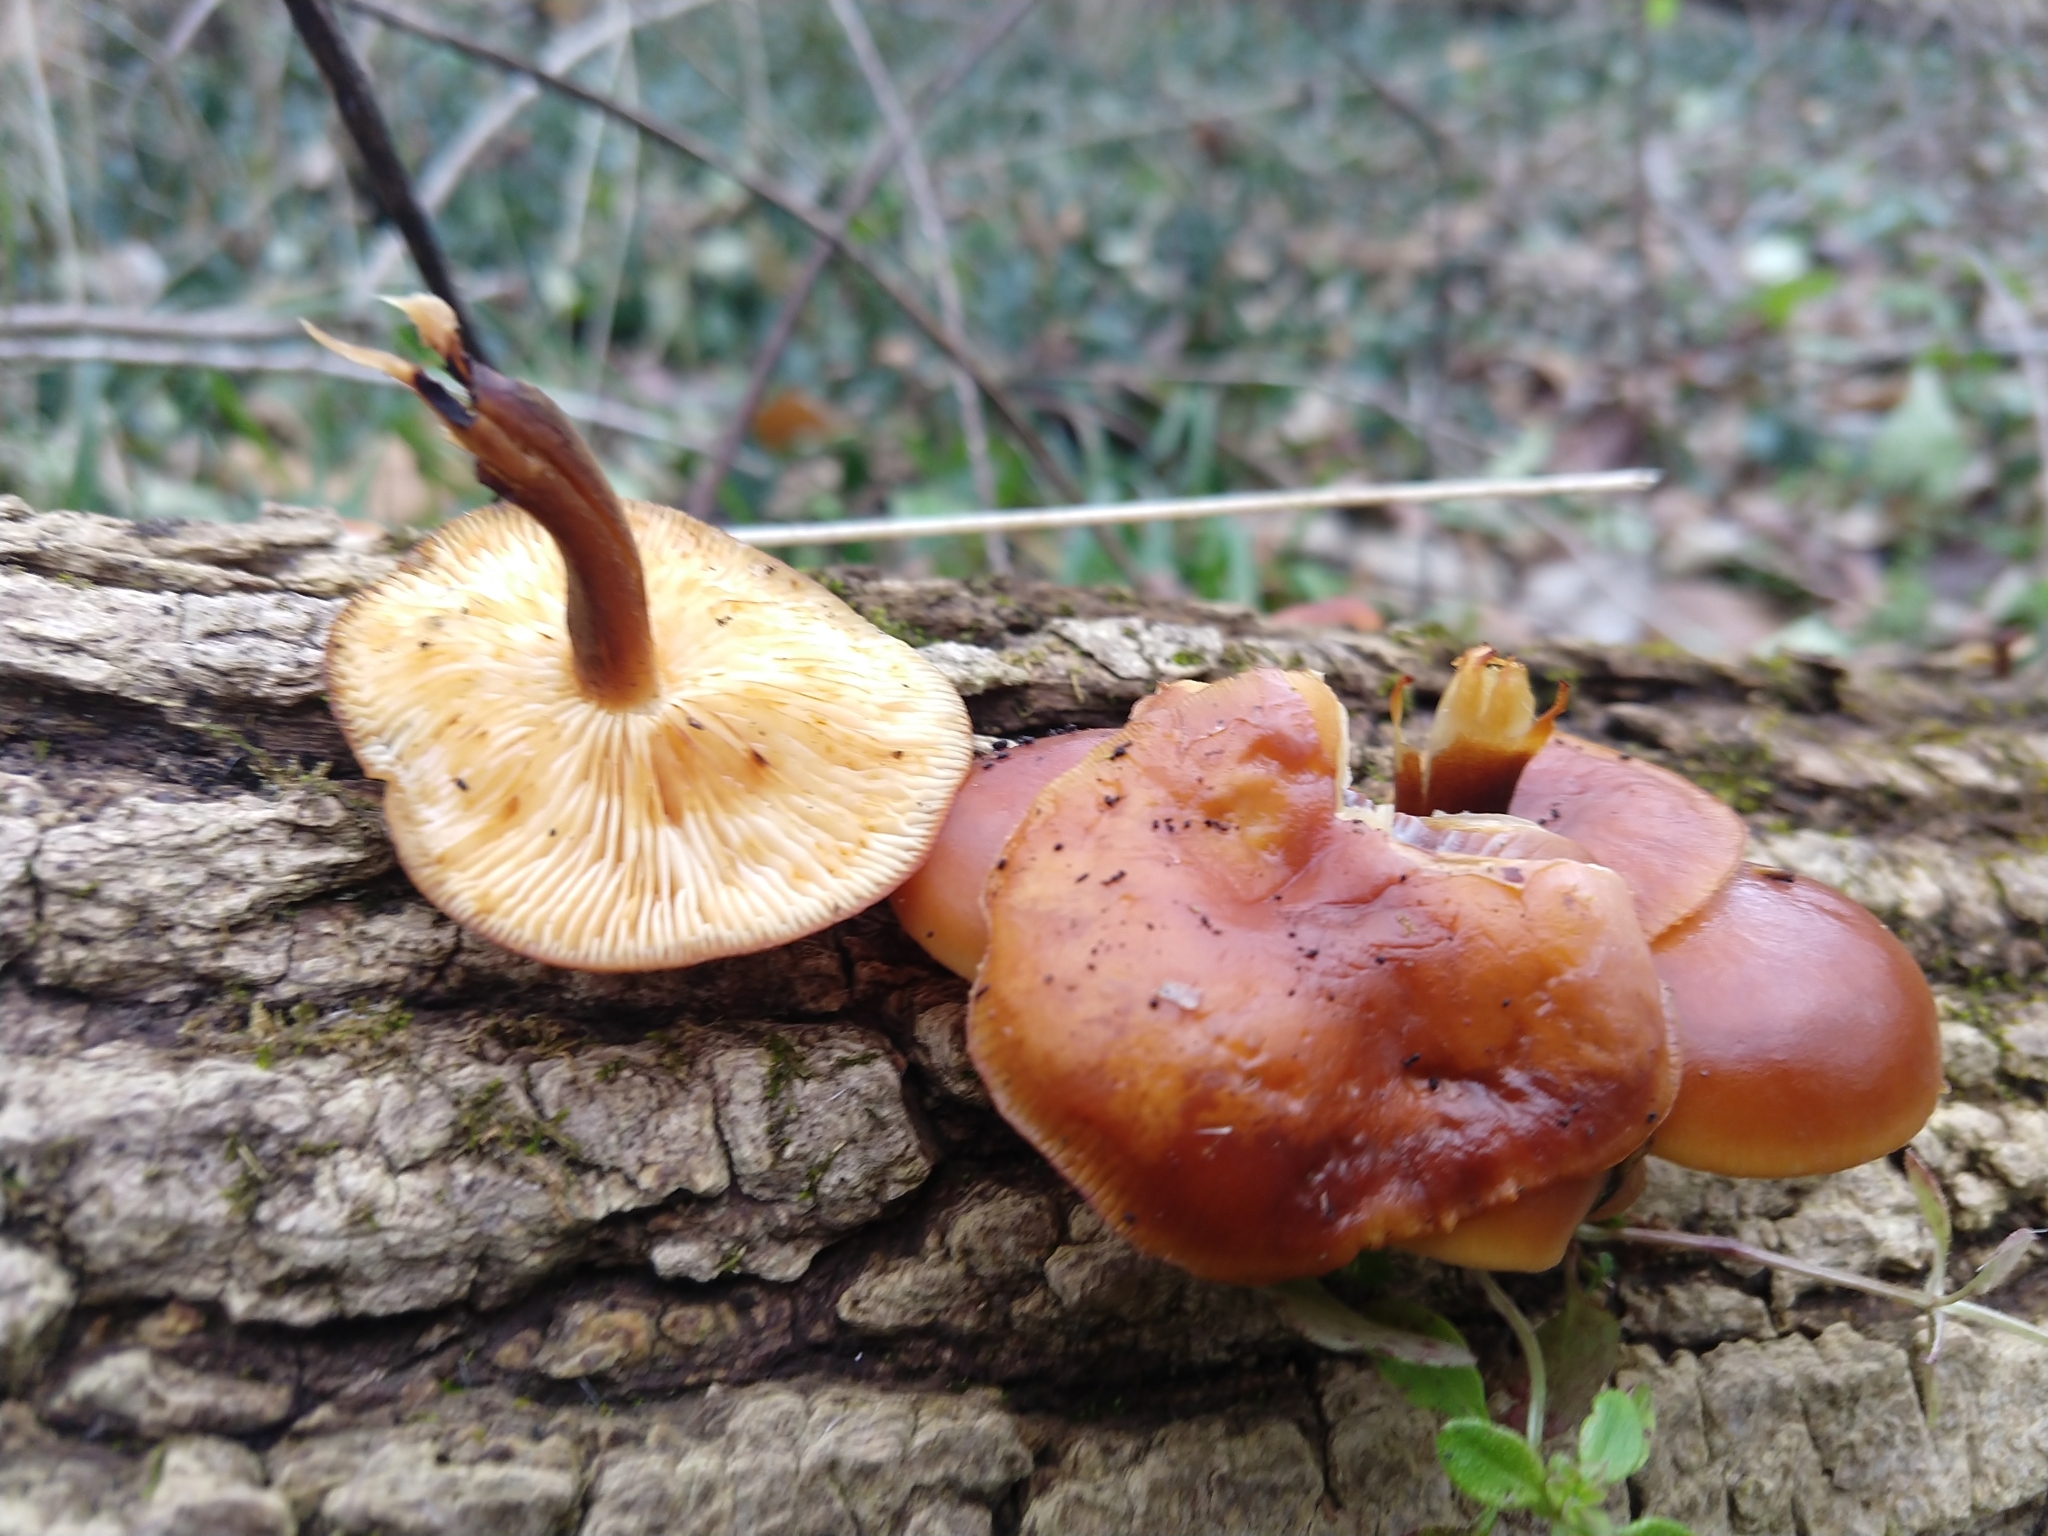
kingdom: Fungi
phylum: Basidiomycota
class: Agaricomycetes
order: Agaricales
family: Physalacriaceae
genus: Flammulina
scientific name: Flammulina velutipes
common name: Velvet shank
